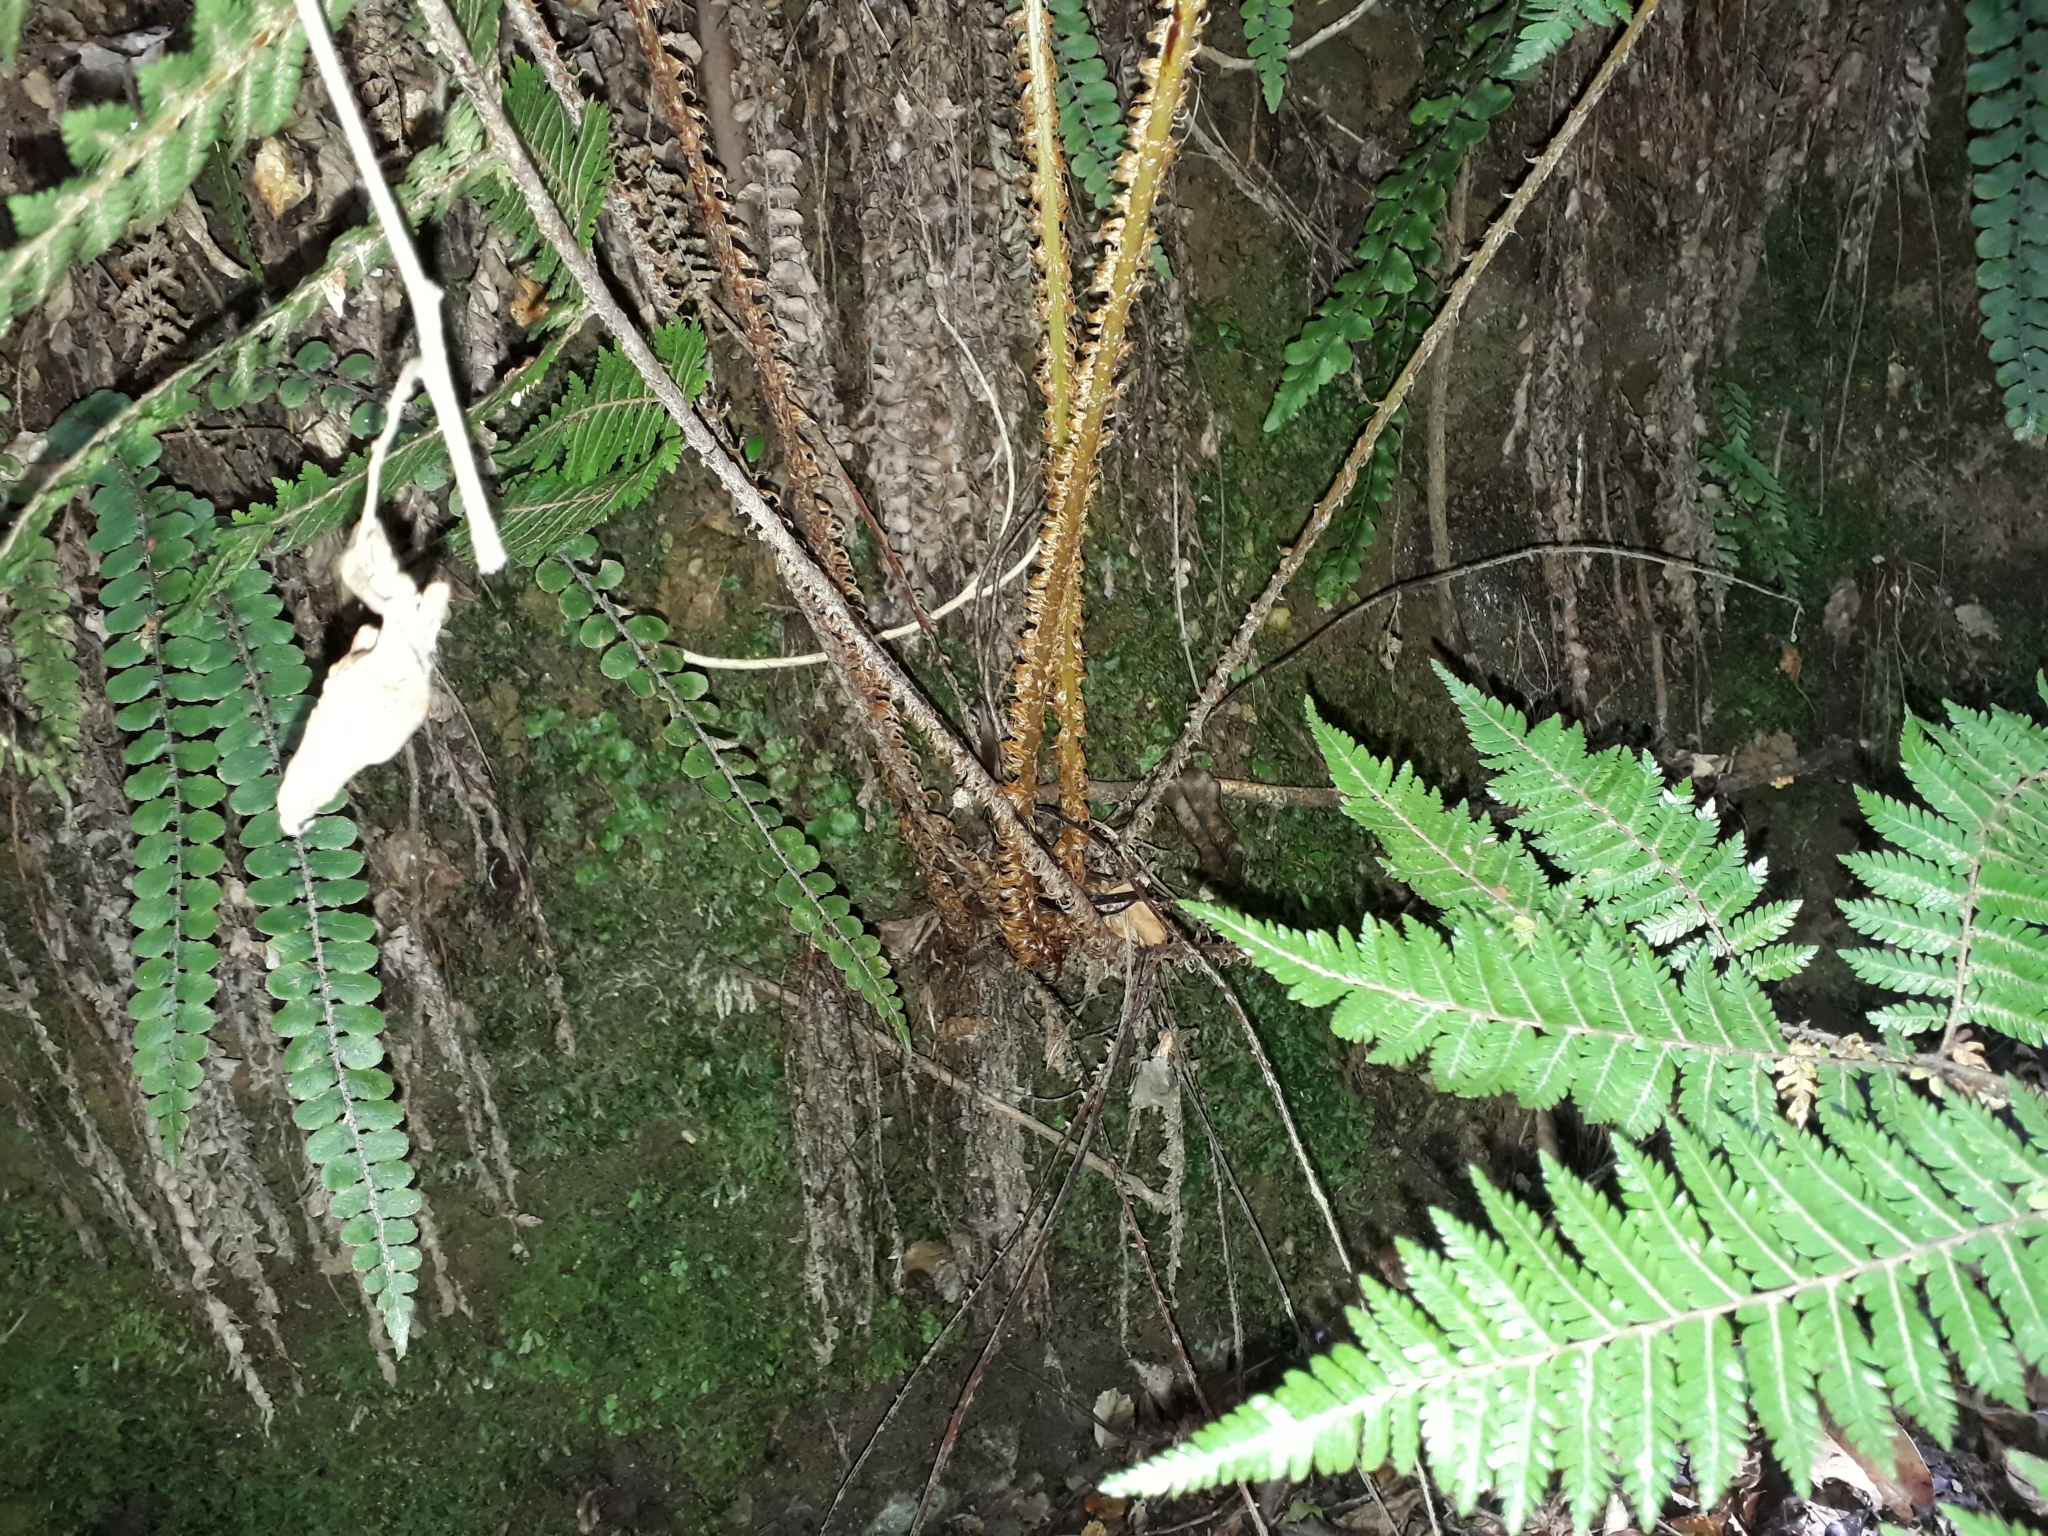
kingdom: Plantae
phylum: Tracheophyta
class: Polypodiopsida
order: Cyatheales
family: Cyatheaceae
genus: Alsophila
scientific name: Alsophila smithii
